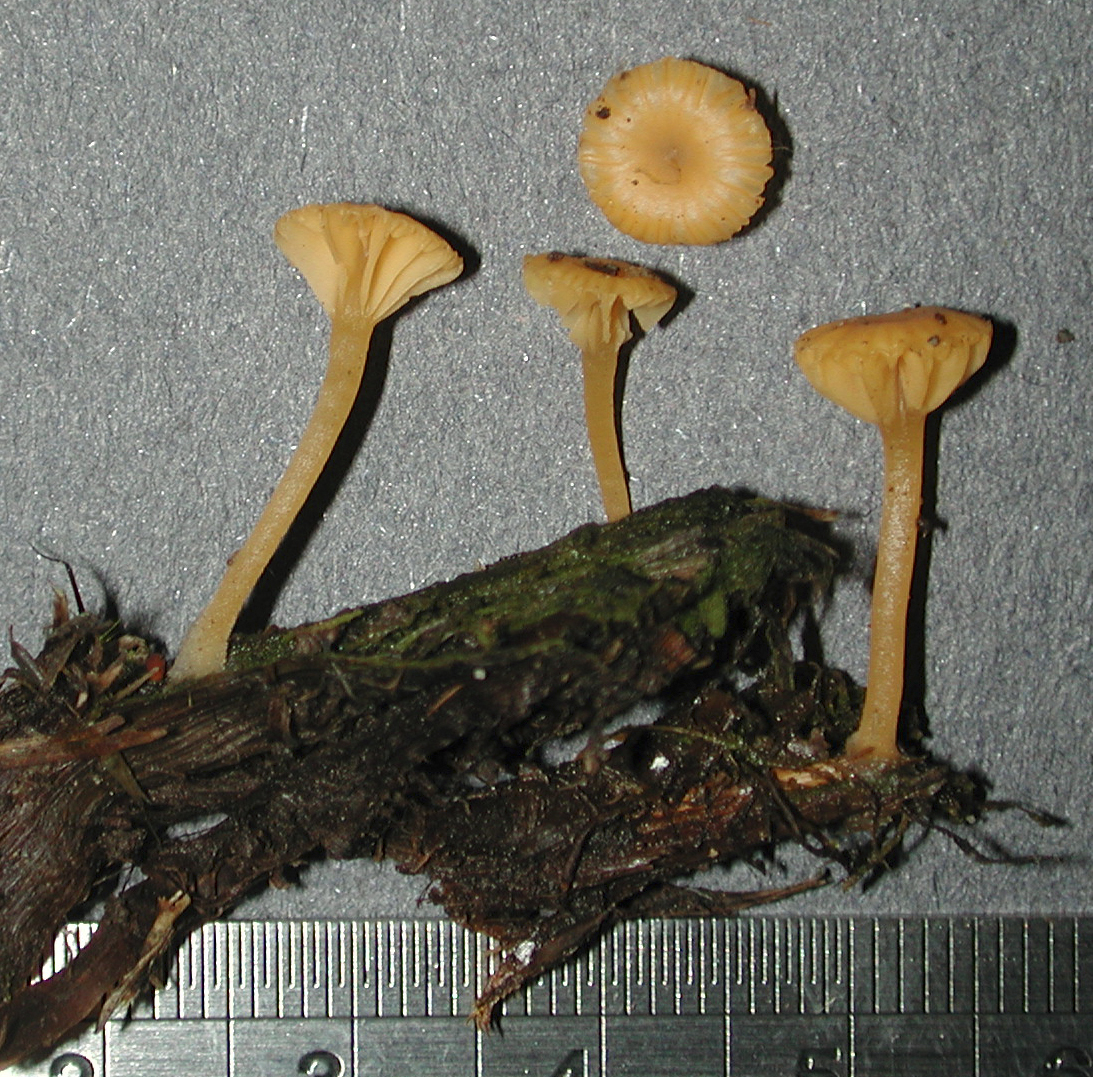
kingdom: Fungi
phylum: Basidiomycota
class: Agaricomycetes
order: Agaricales
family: Hygrophoraceae
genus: Lichenomphalia
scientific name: Lichenomphalia chromacea
